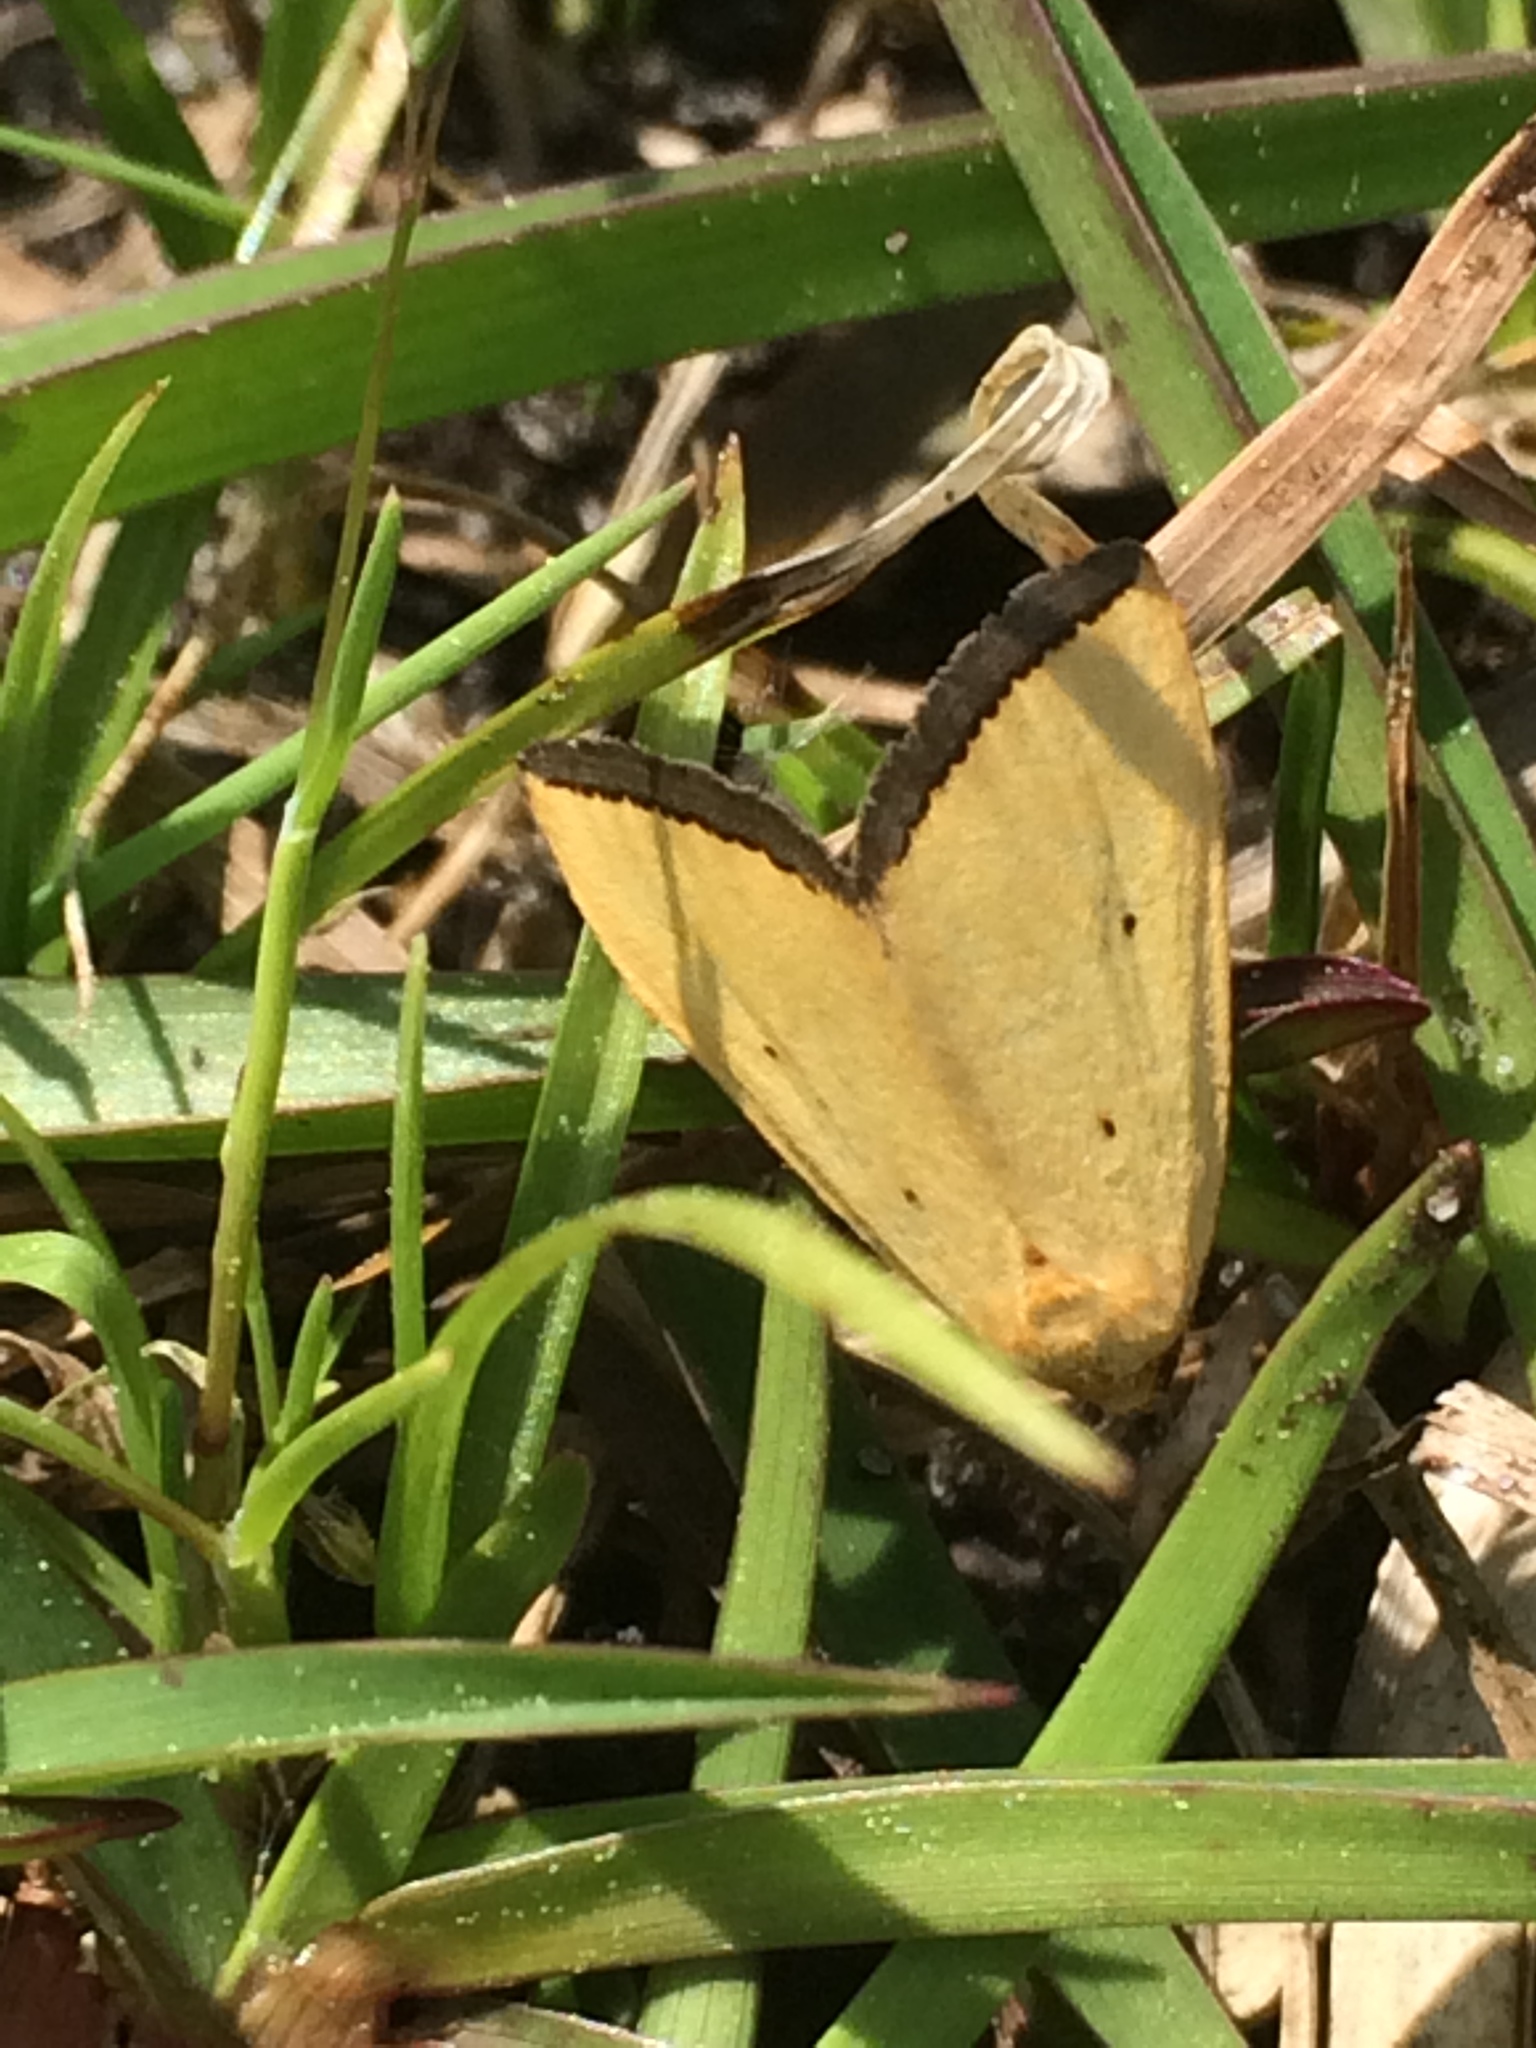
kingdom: Animalia
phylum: Arthropoda
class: Insecta
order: Lepidoptera
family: Noctuidae
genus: Marimatha
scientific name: Marimatha nigrofimbria
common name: Black-bordered lemon moth
